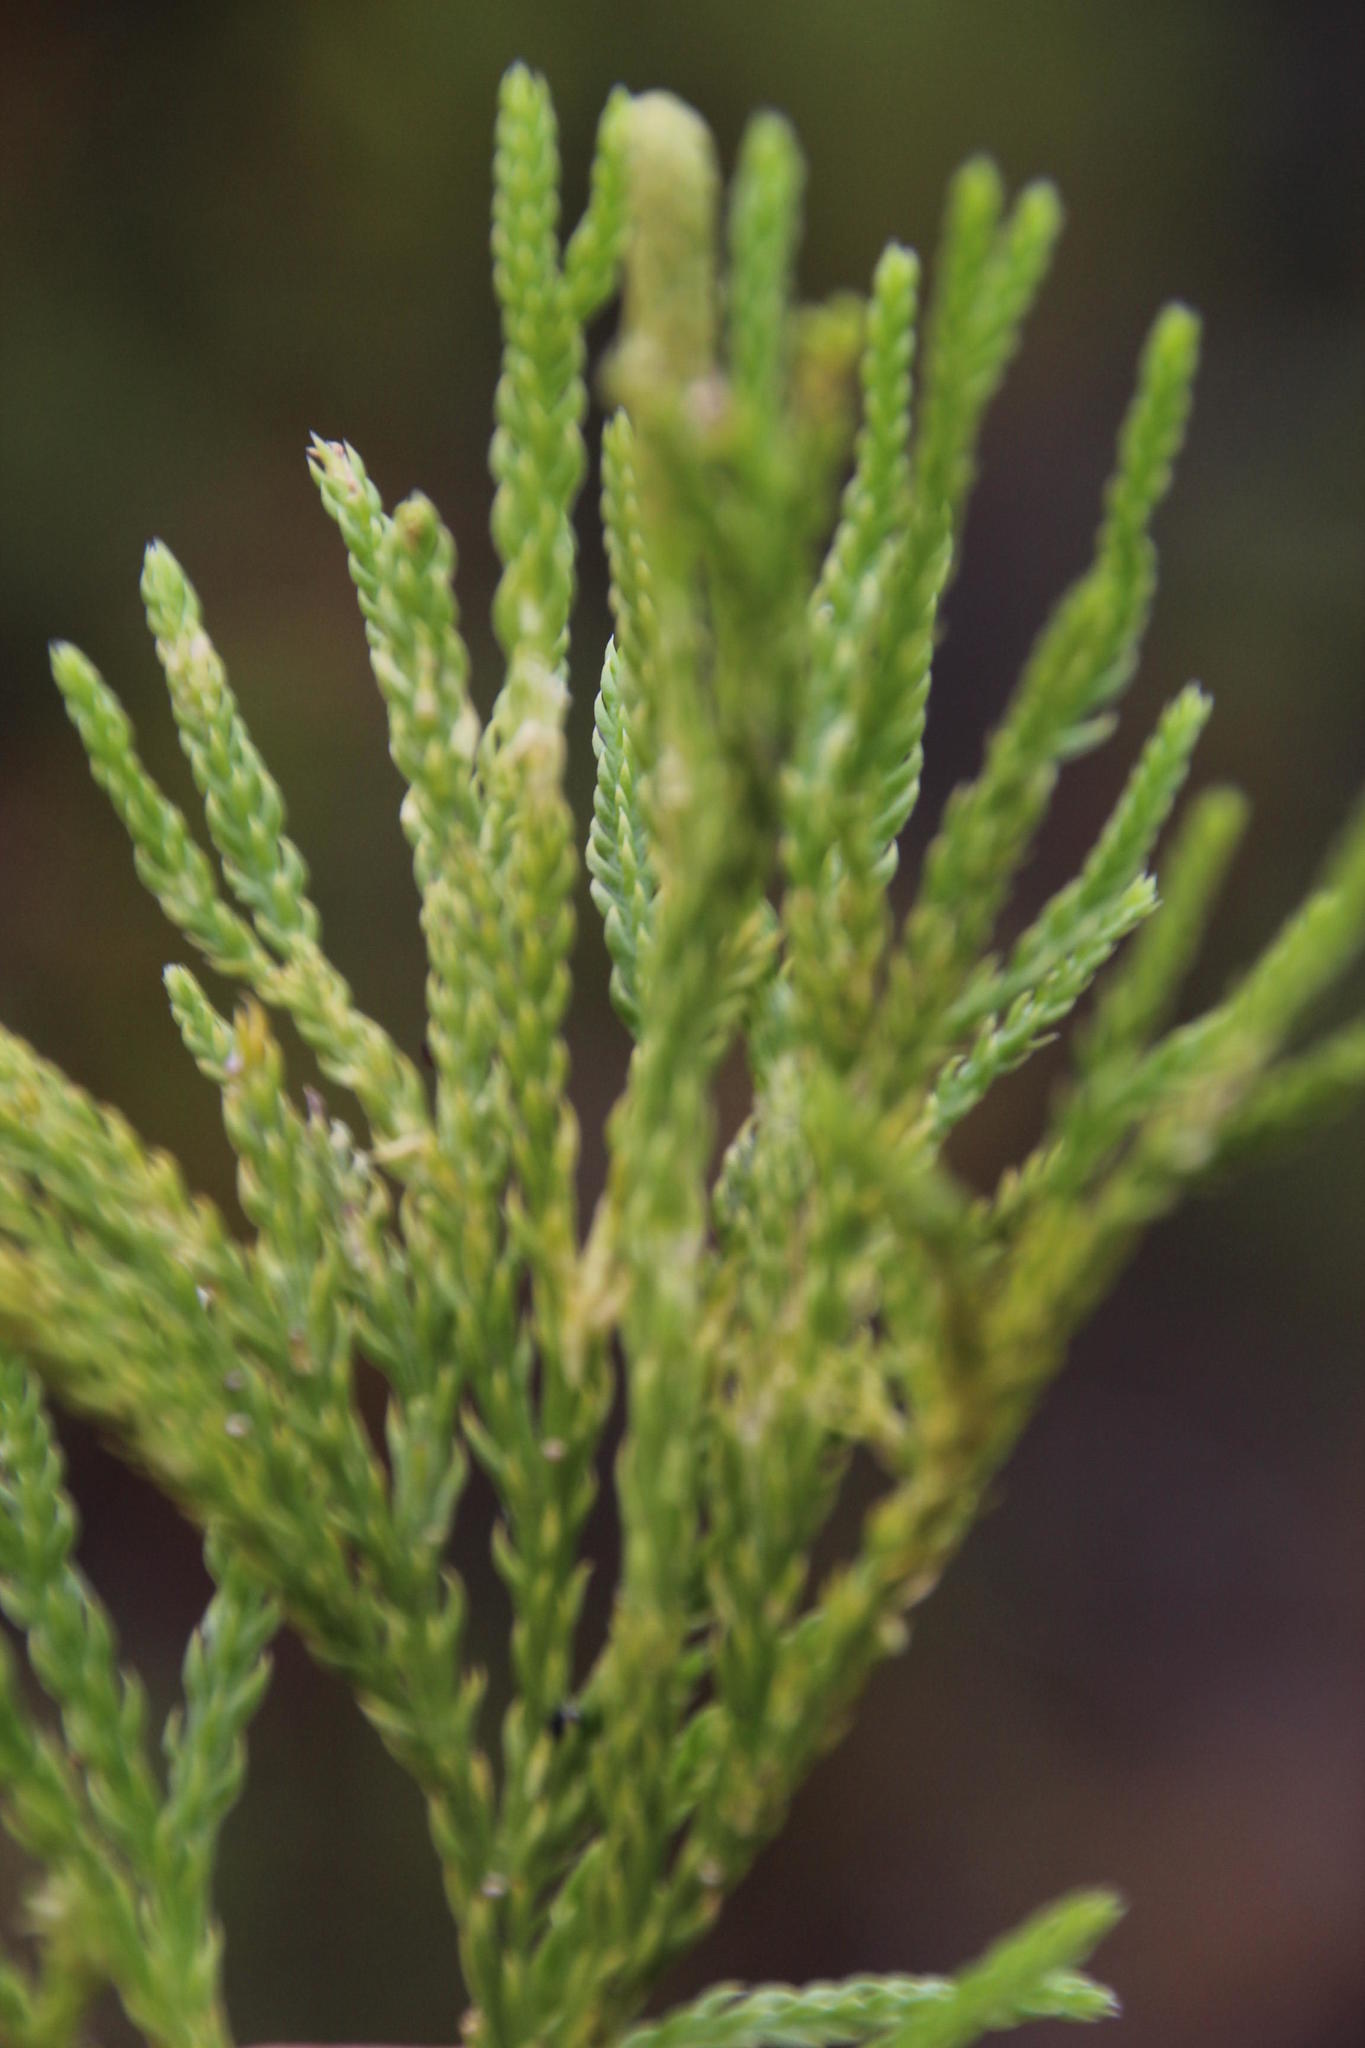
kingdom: Plantae
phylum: Tracheophyta
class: Lycopodiopsida
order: Lycopodiales
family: Lycopodiaceae
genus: Diphasiastrum
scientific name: Diphasiastrum zanclophyllum
